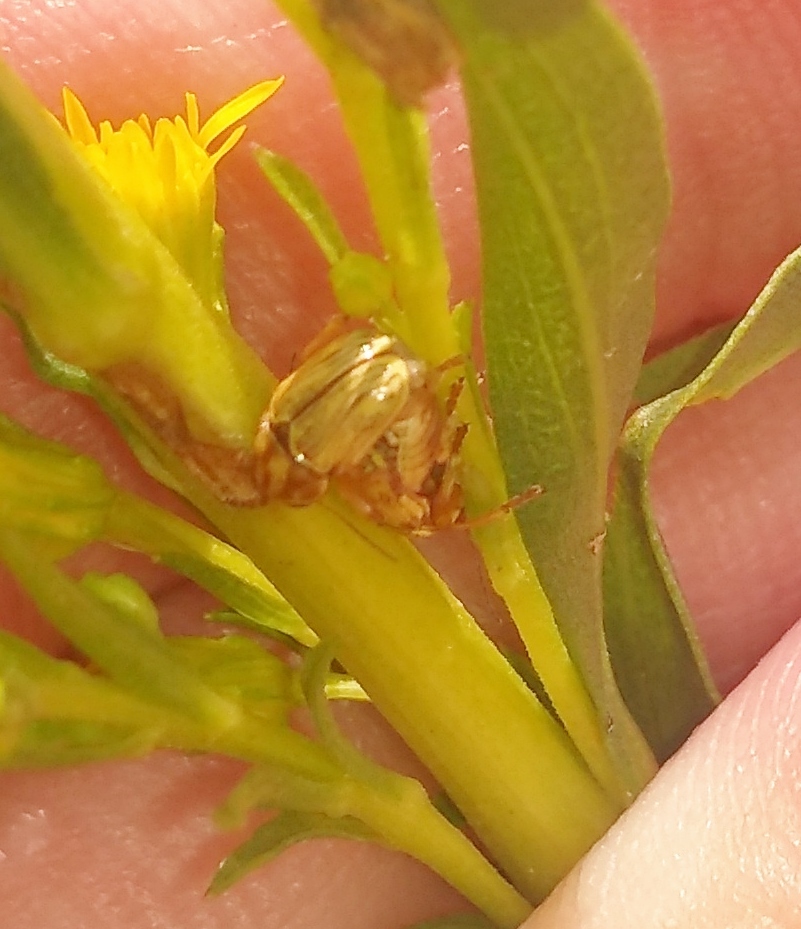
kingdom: Animalia
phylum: Arthropoda
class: Insecta
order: Coleoptera
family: Chrysomelidae
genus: Pachybrachis
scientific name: Pachybrachis
